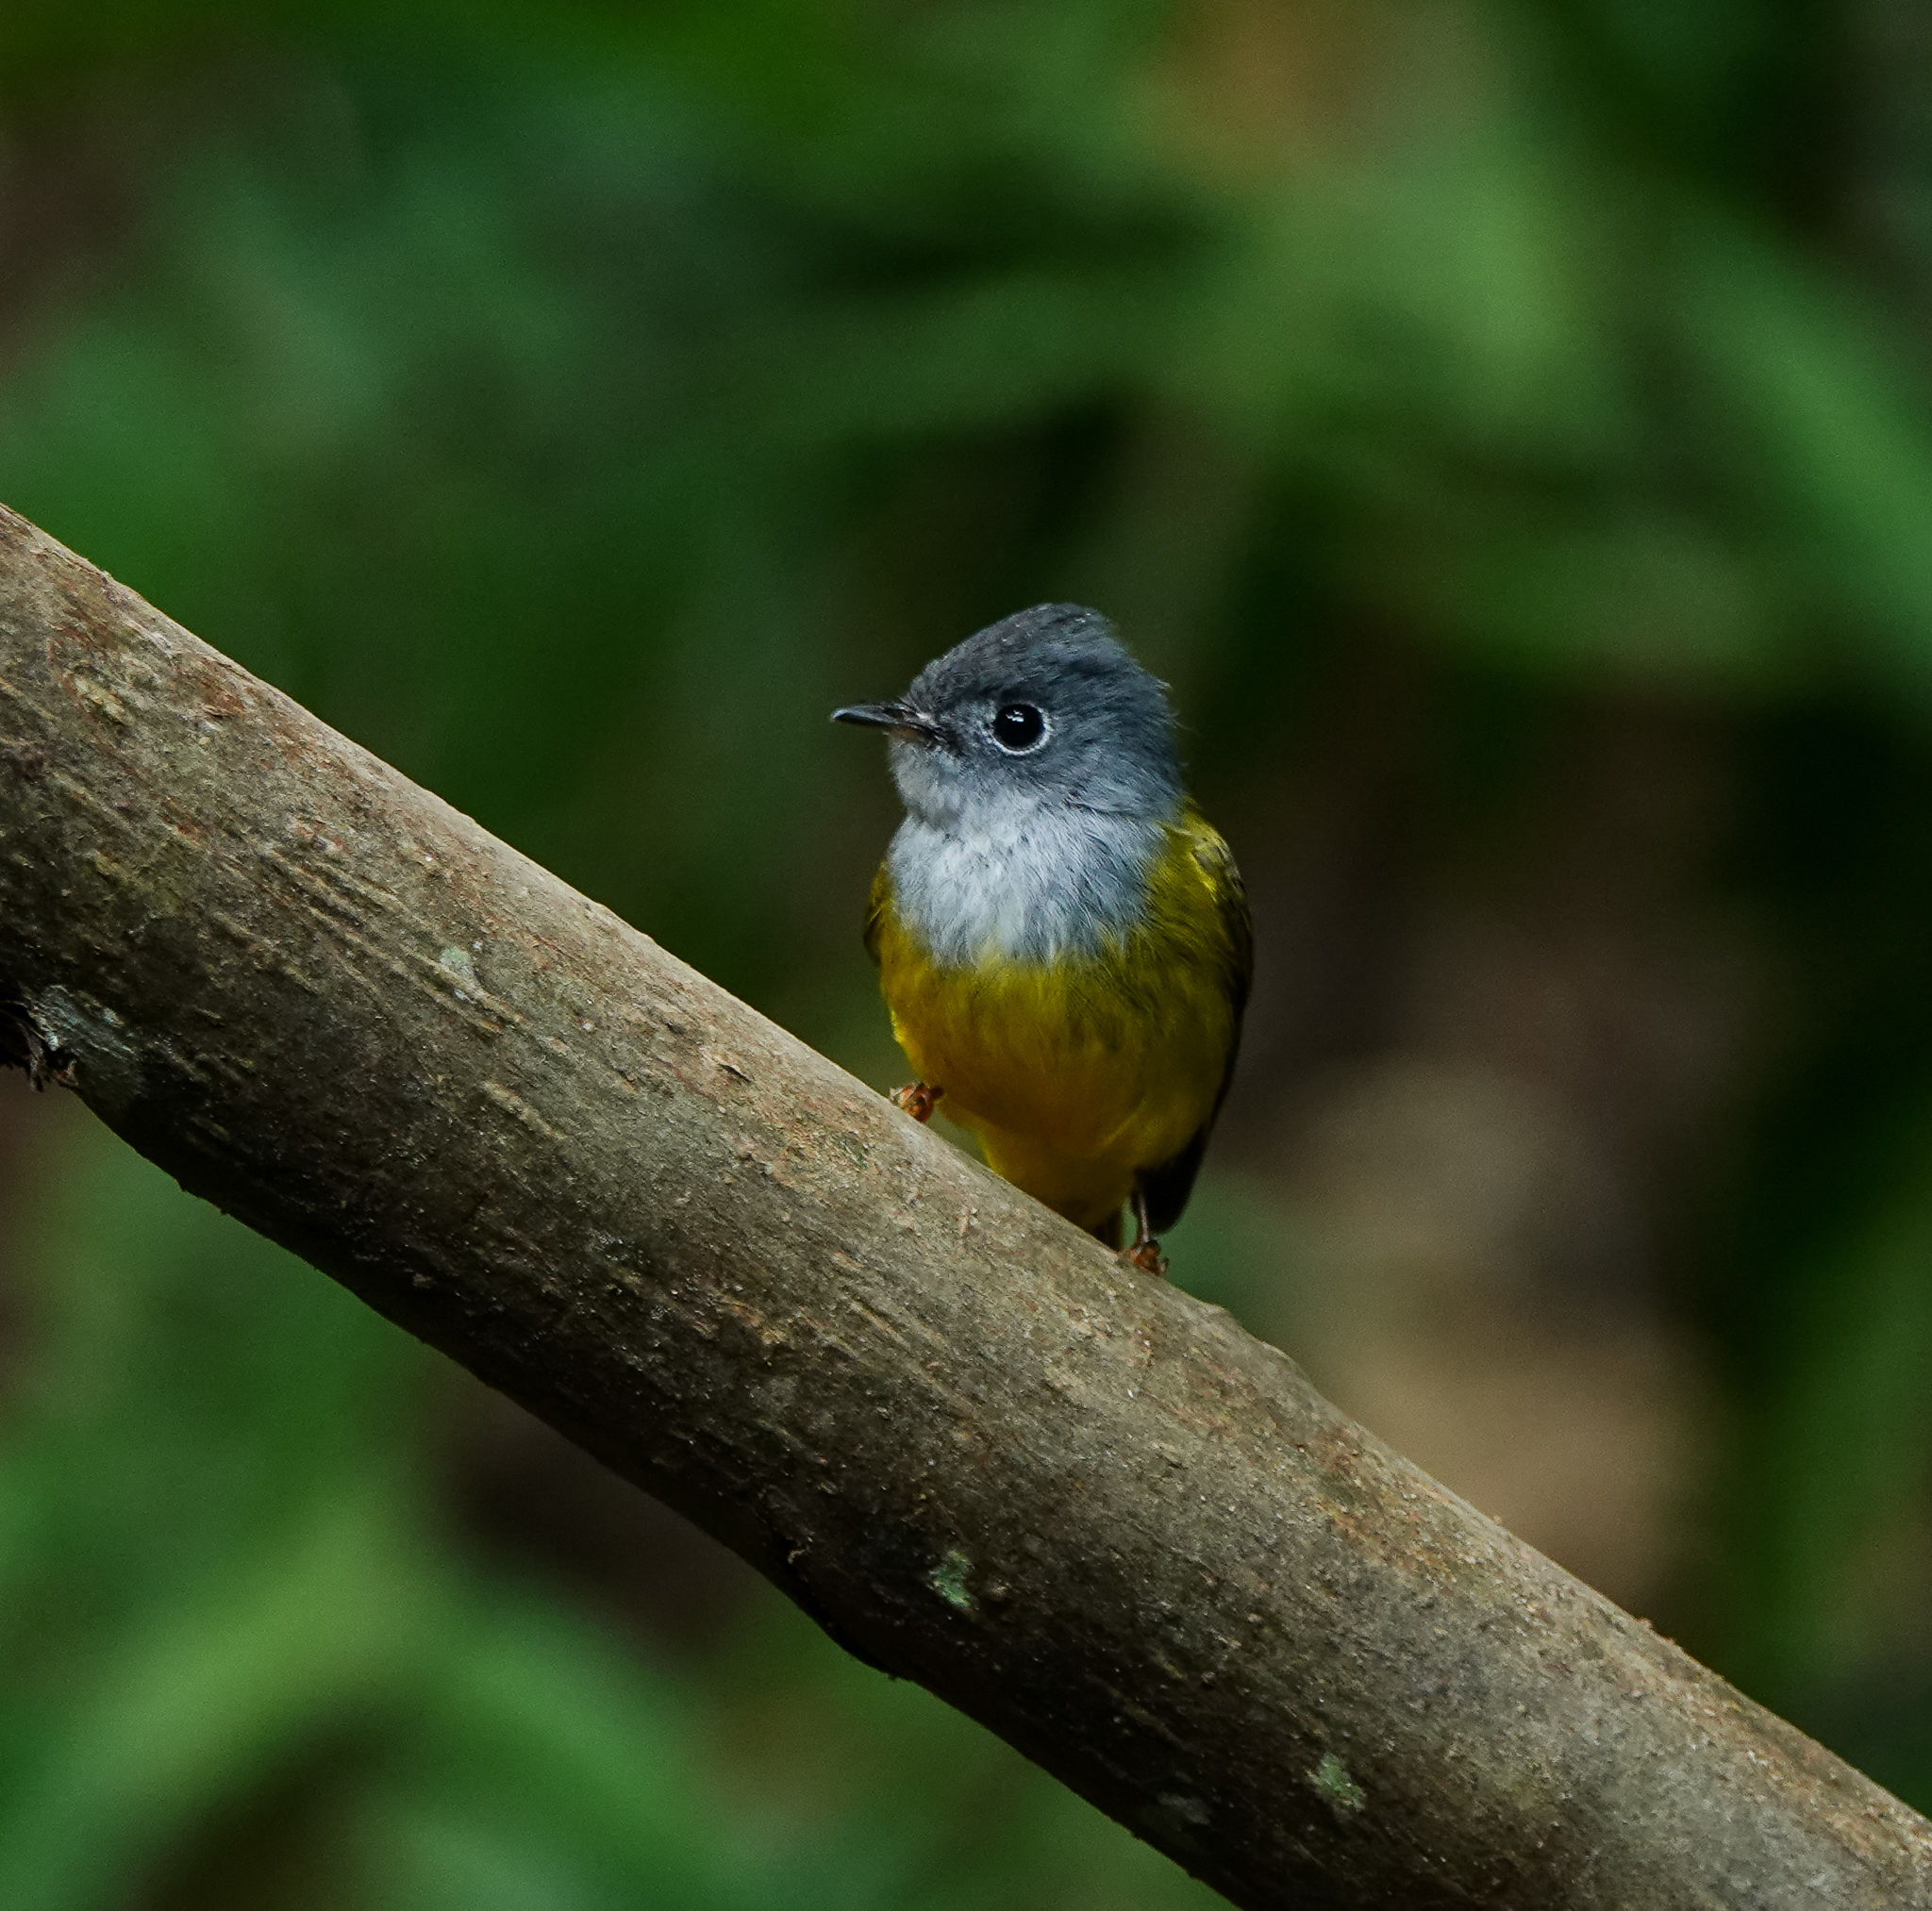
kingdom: Animalia
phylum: Chordata
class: Aves
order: Passeriformes
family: Stenostiridae
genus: Culicicapa
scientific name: Culicicapa ceylonensis
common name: Grey-headed canary-flycatcher
